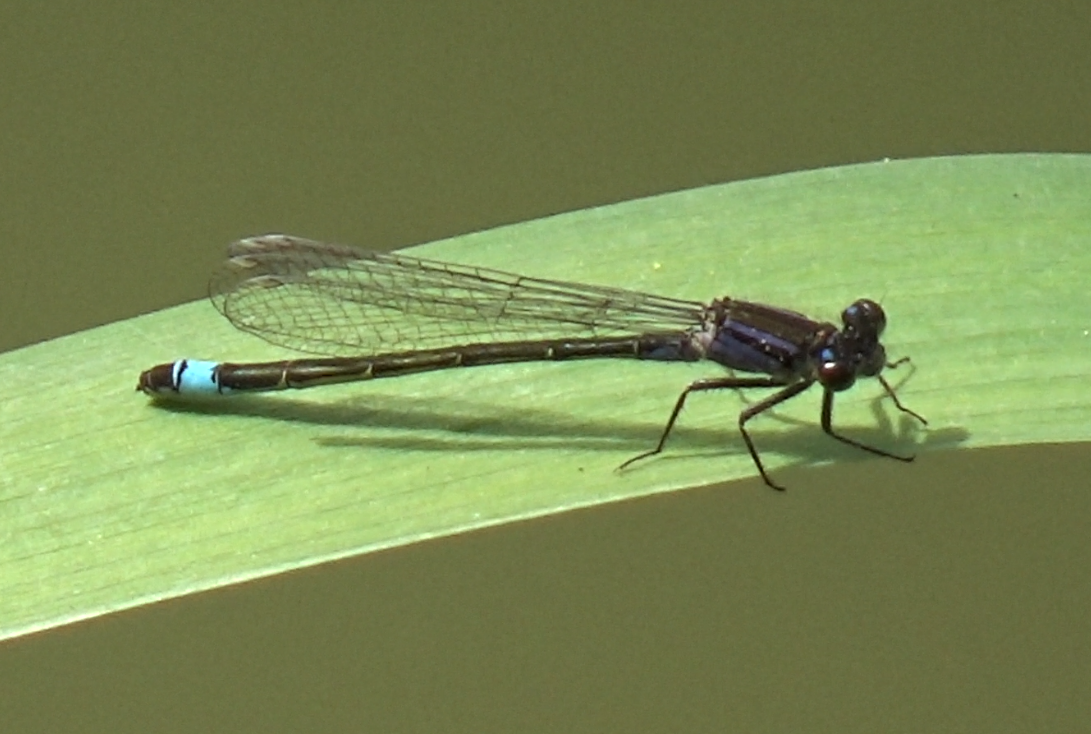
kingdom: Animalia
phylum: Arthropoda
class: Insecta
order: Odonata
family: Coenagrionidae
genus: Ischnura
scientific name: Ischnura elegans
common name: Blue-tailed damselfly
